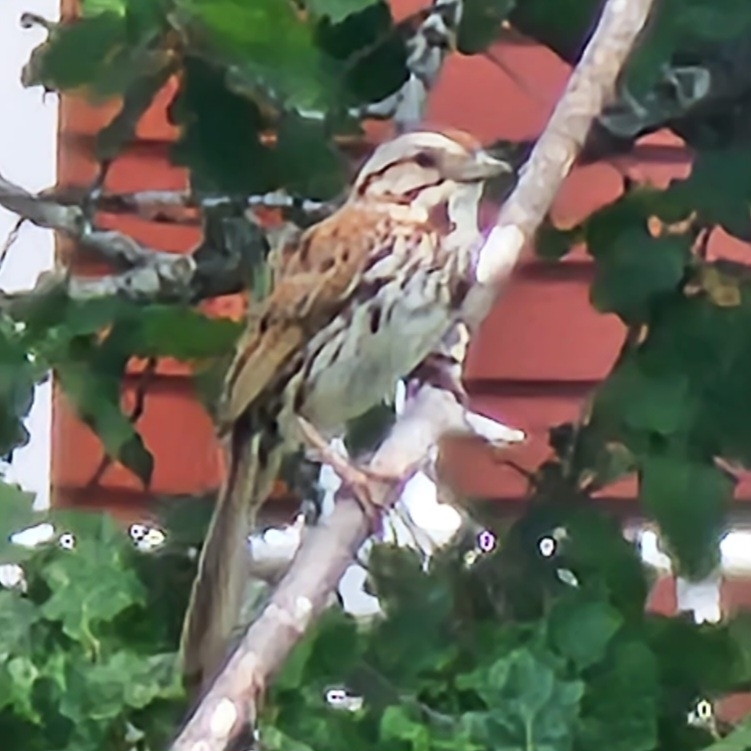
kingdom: Animalia
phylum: Chordata
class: Aves
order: Passeriformes
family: Passerellidae
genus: Melospiza
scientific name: Melospiza melodia
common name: Song sparrow
